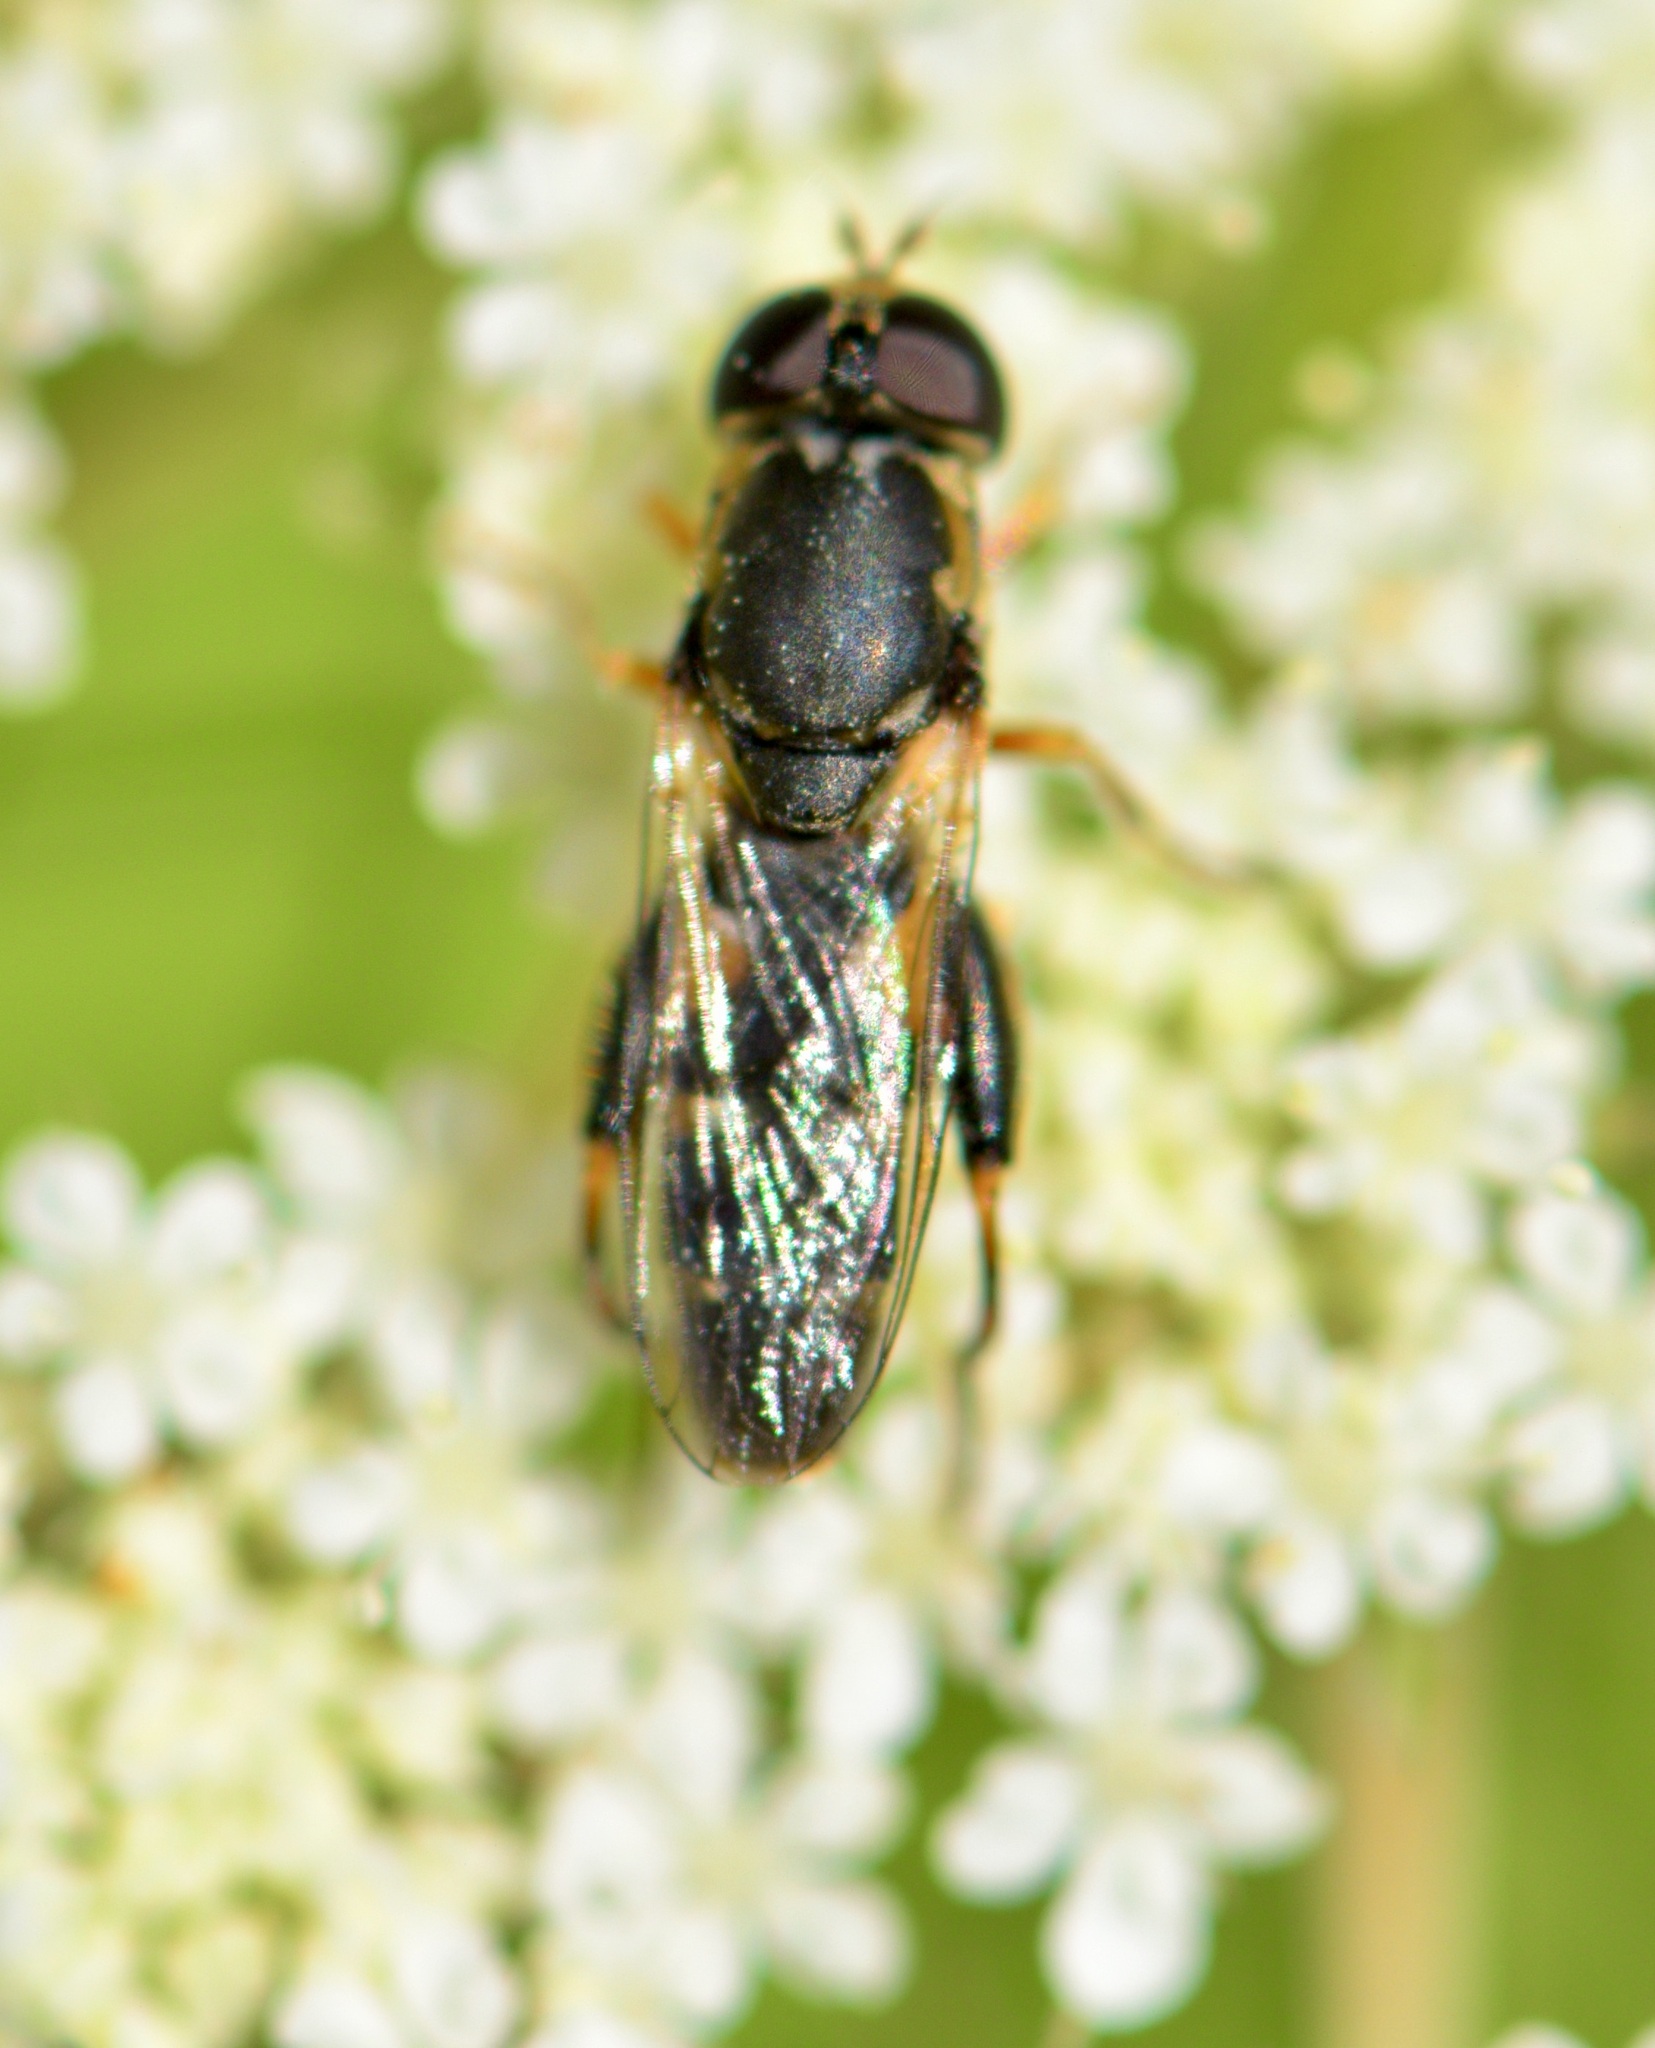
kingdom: Animalia
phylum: Arthropoda
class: Insecta
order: Diptera
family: Syrphidae
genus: Syritta
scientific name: Syritta pipiens
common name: Hover fly
